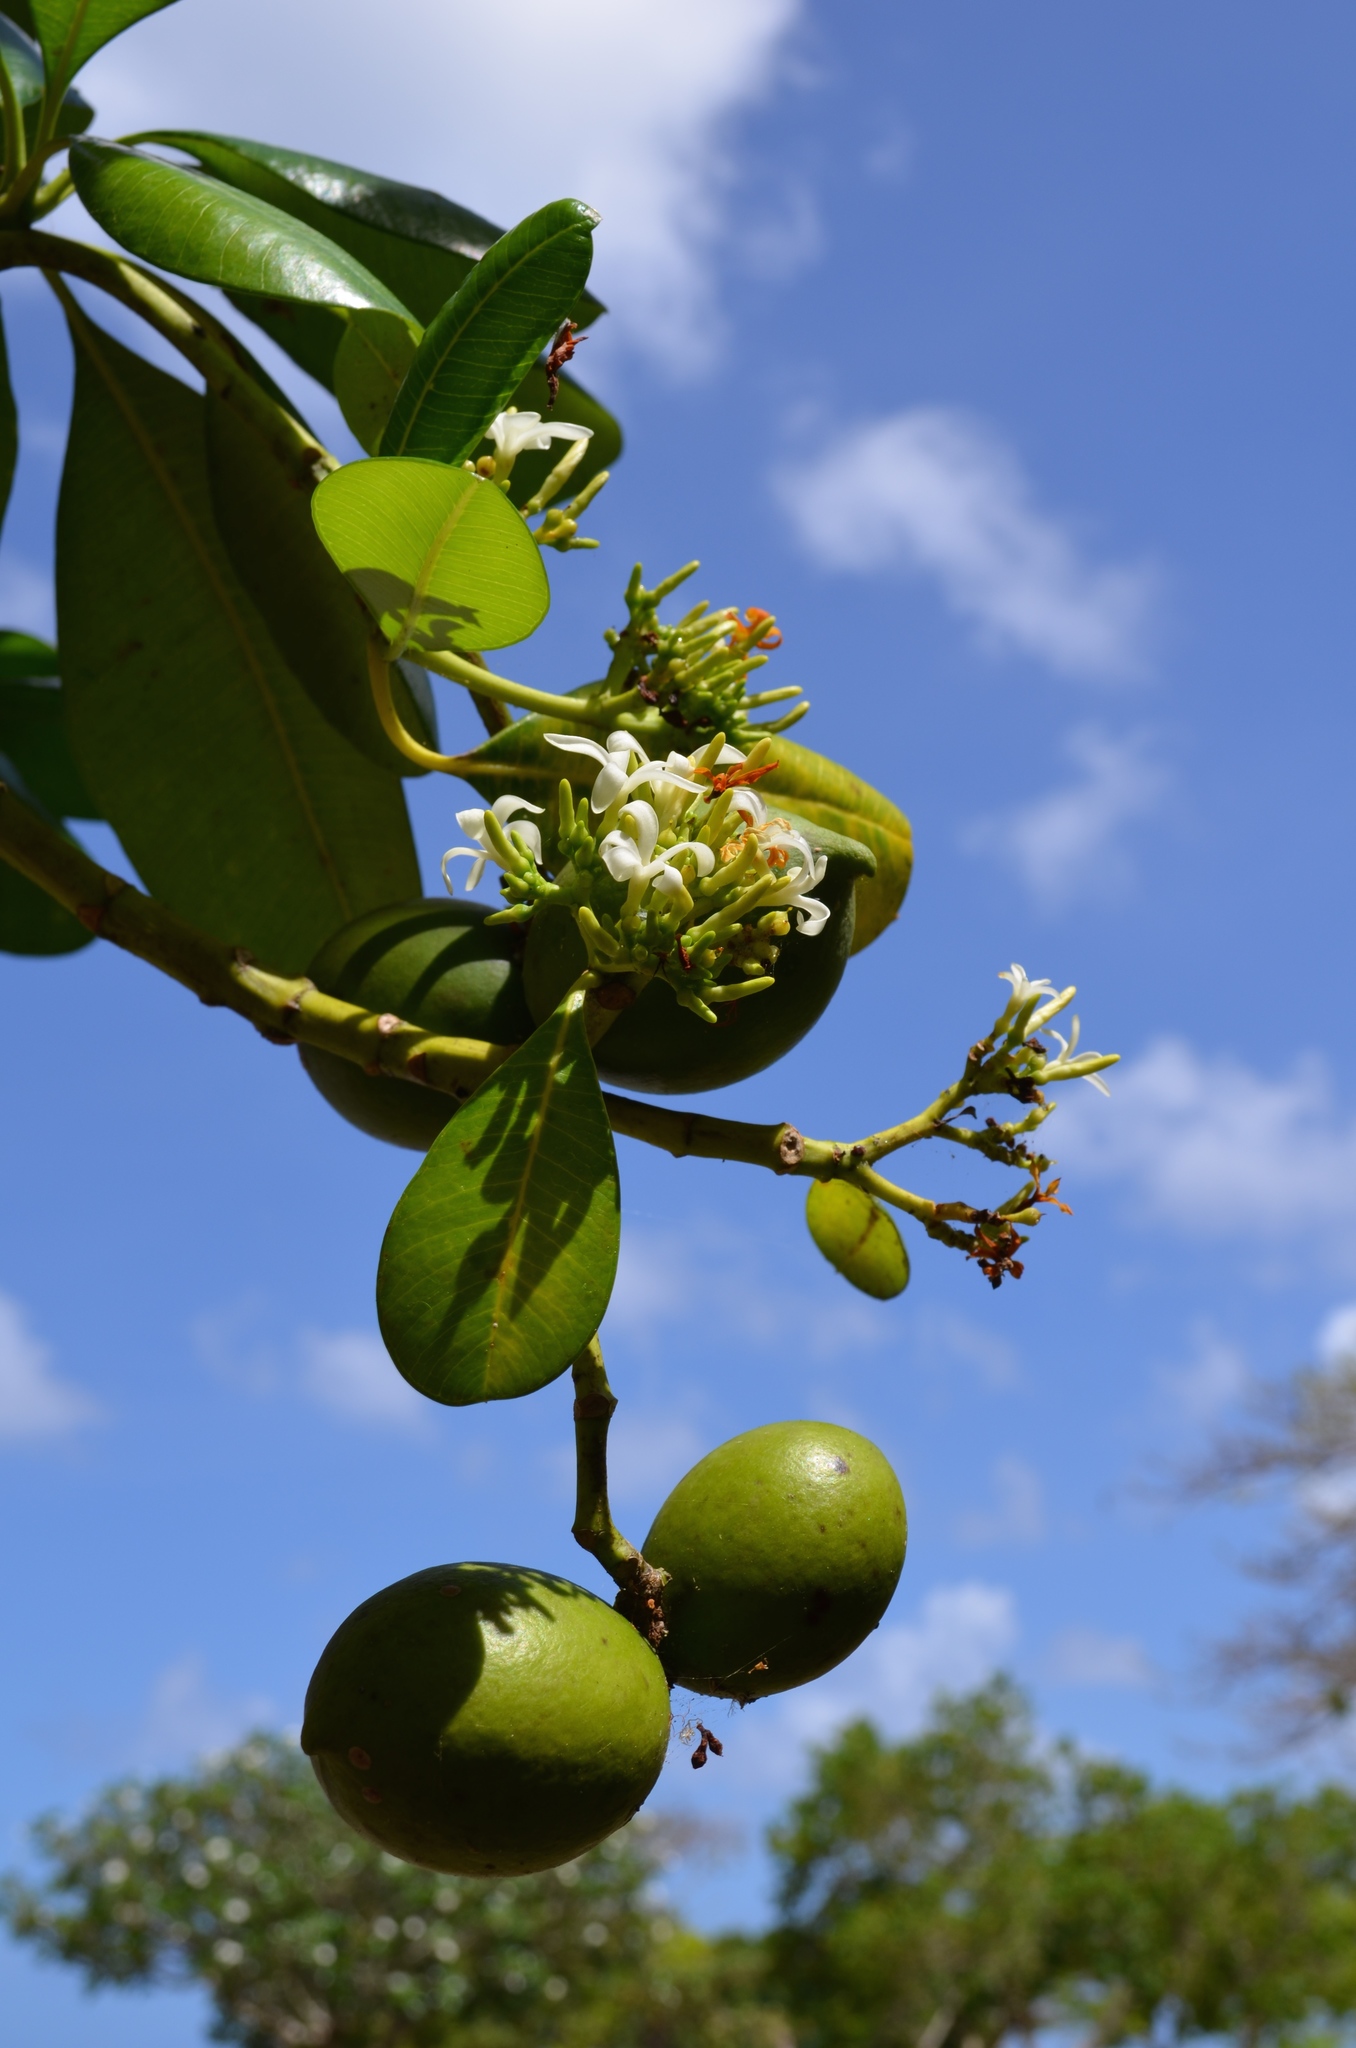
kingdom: Plantae
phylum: Tracheophyta
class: Magnoliopsida
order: Gentianales
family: Apocynaceae
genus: Cerbera
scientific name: Cerbera odollam
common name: Pong-pong
